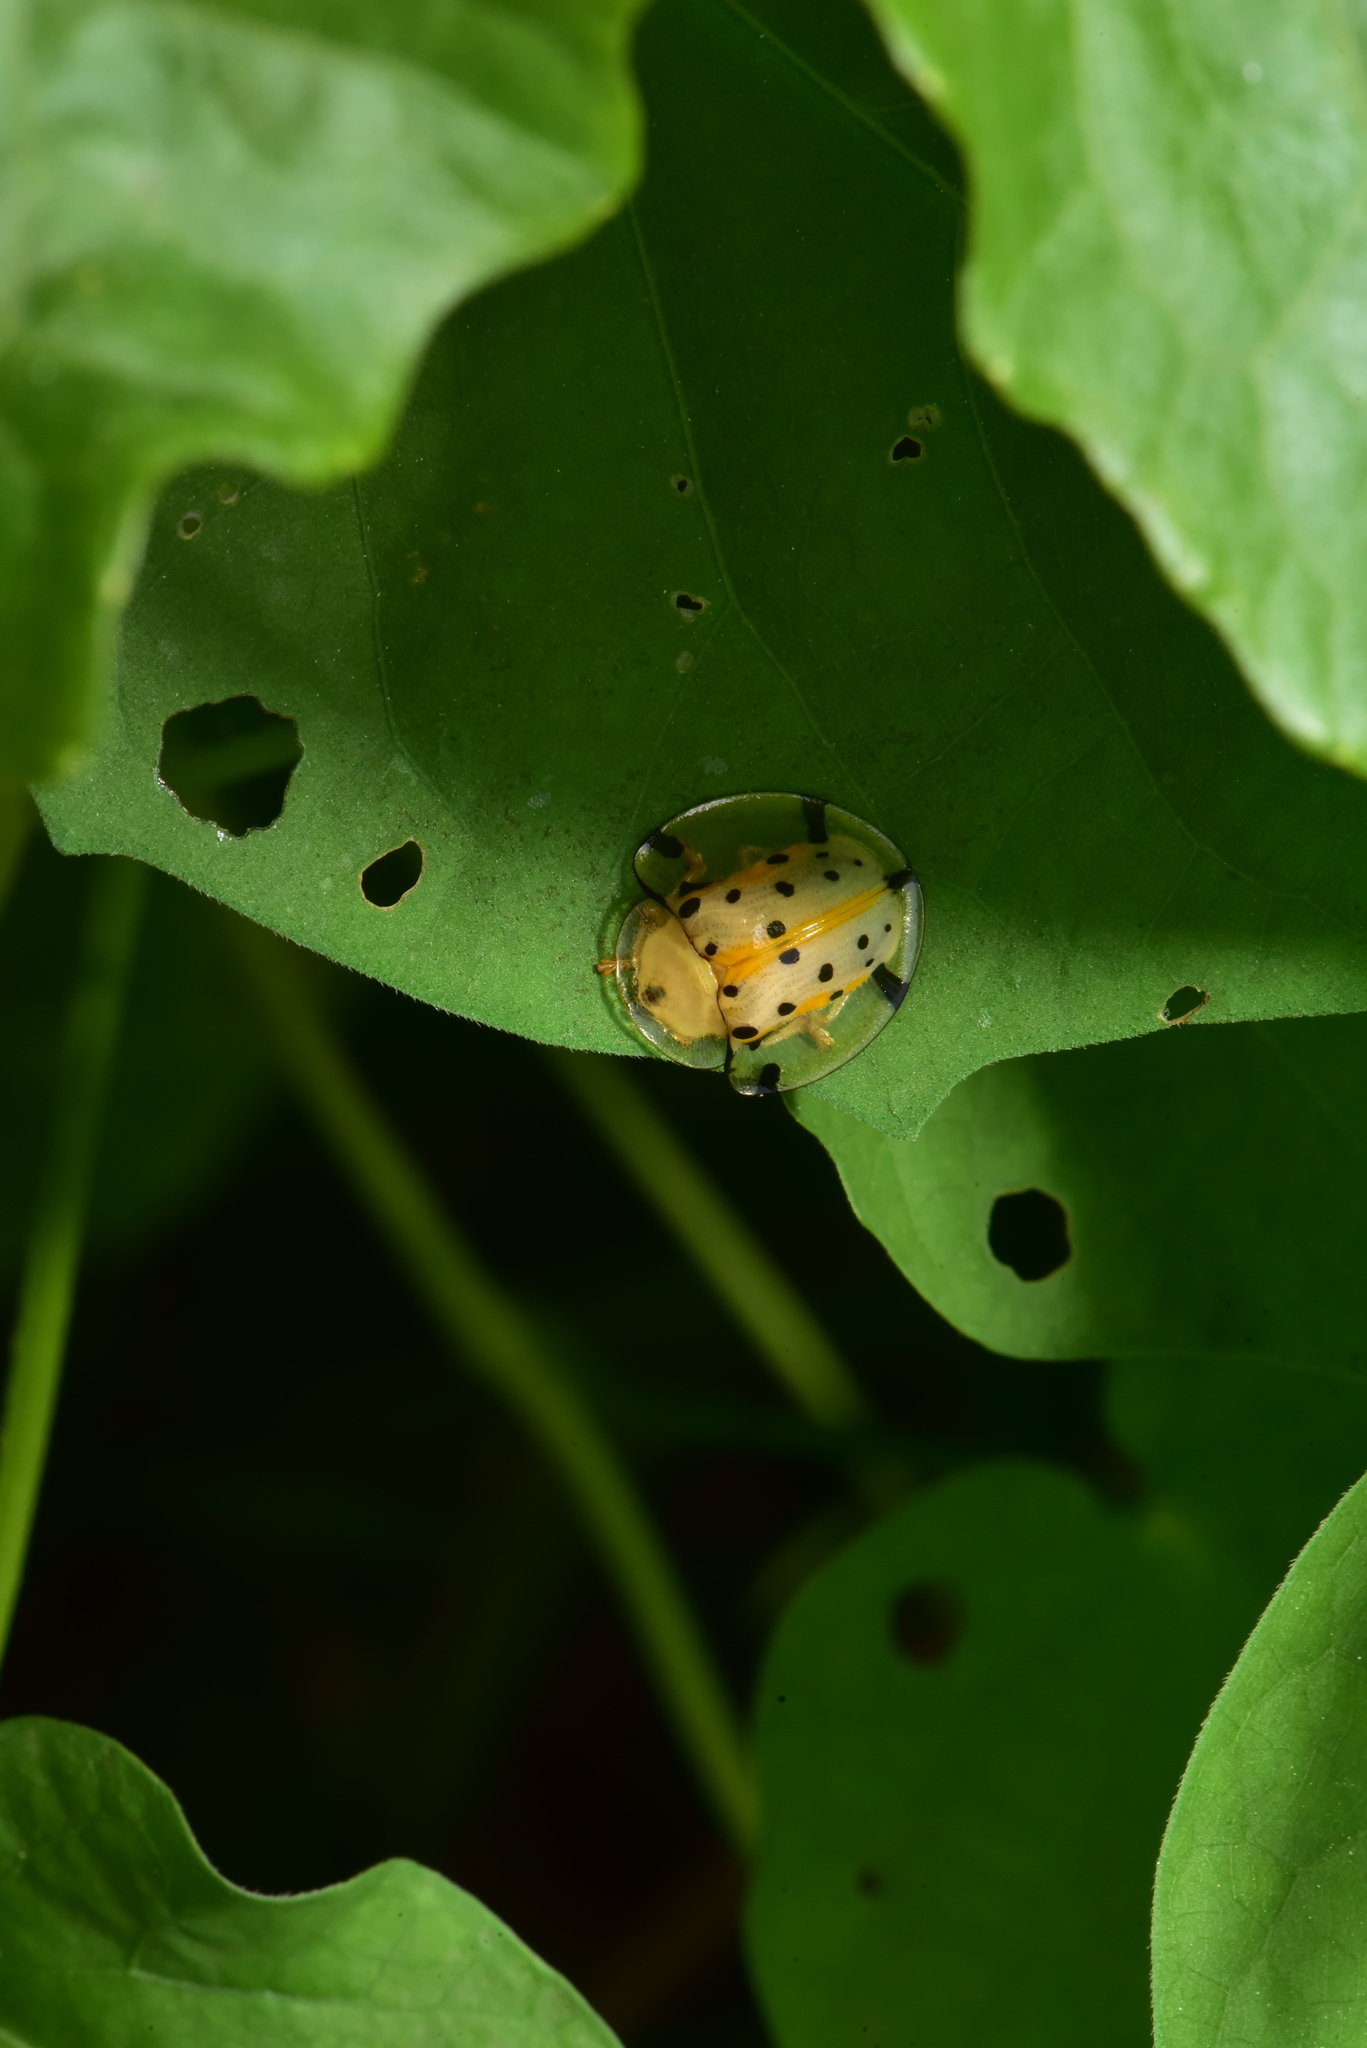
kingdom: Animalia
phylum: Arthropoda
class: Insecta
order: Coleoptera
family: Chrysomelidae
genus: Aspidimorpha
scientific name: Aspidimorpha miliaris
